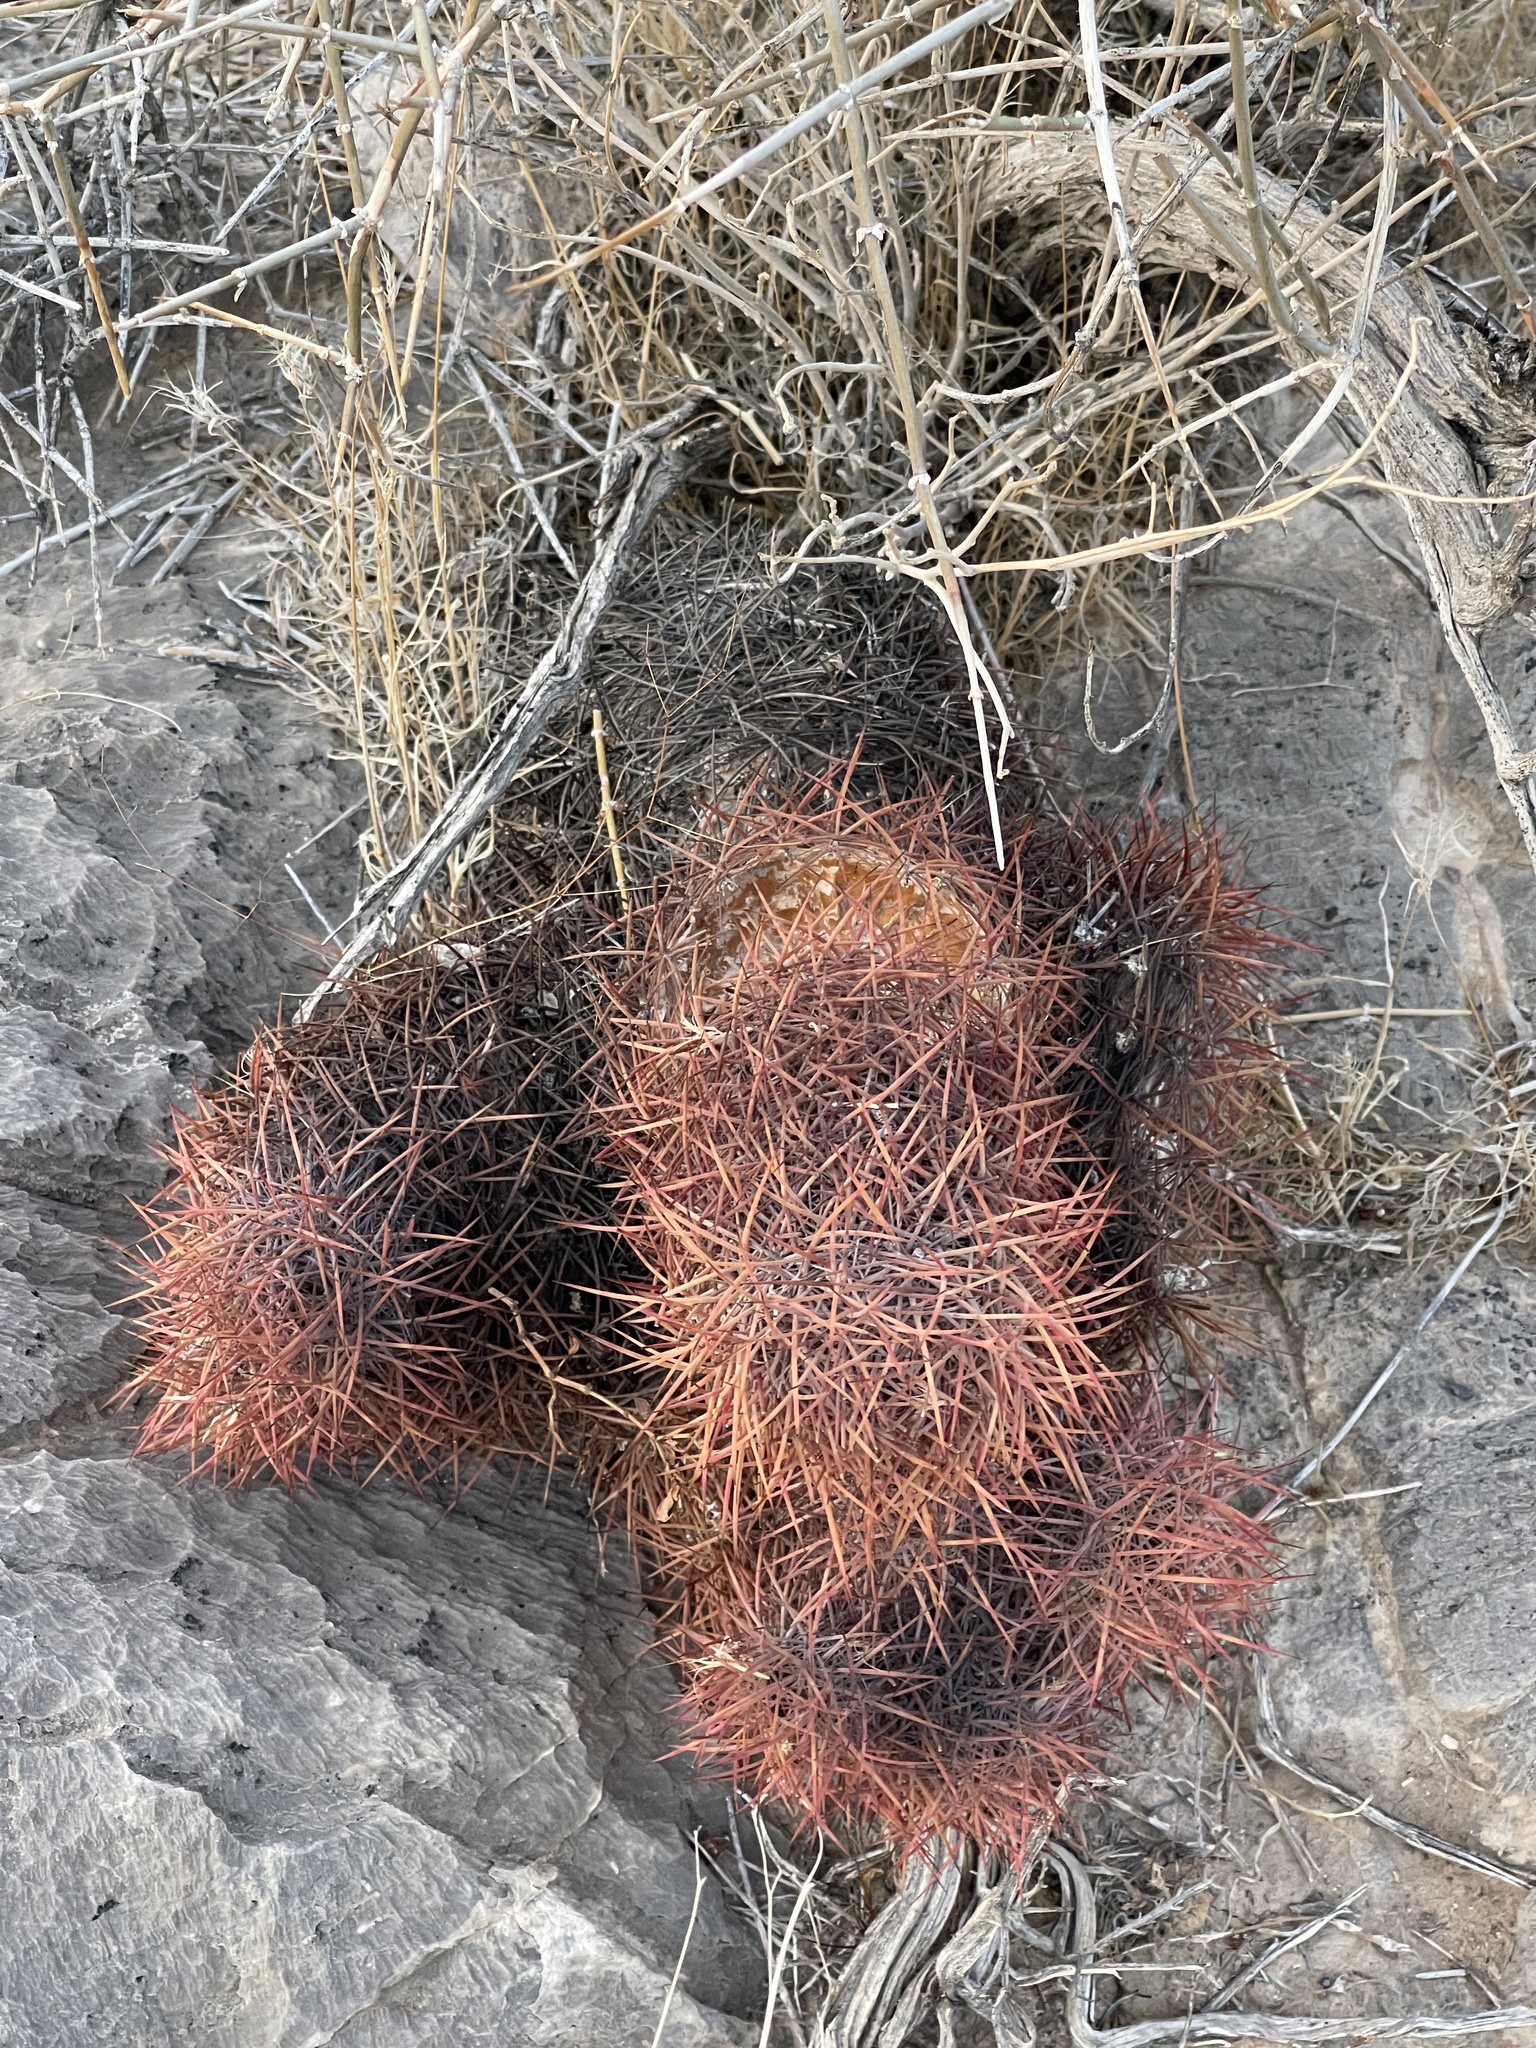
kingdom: Plantae
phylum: Tracheophyta
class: Magnoliopsida
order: Caryophyllales
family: Cactaceae
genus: Sclerocactus
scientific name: Sclerocactus johnsonii
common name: Eight-spine fishhook cactus
